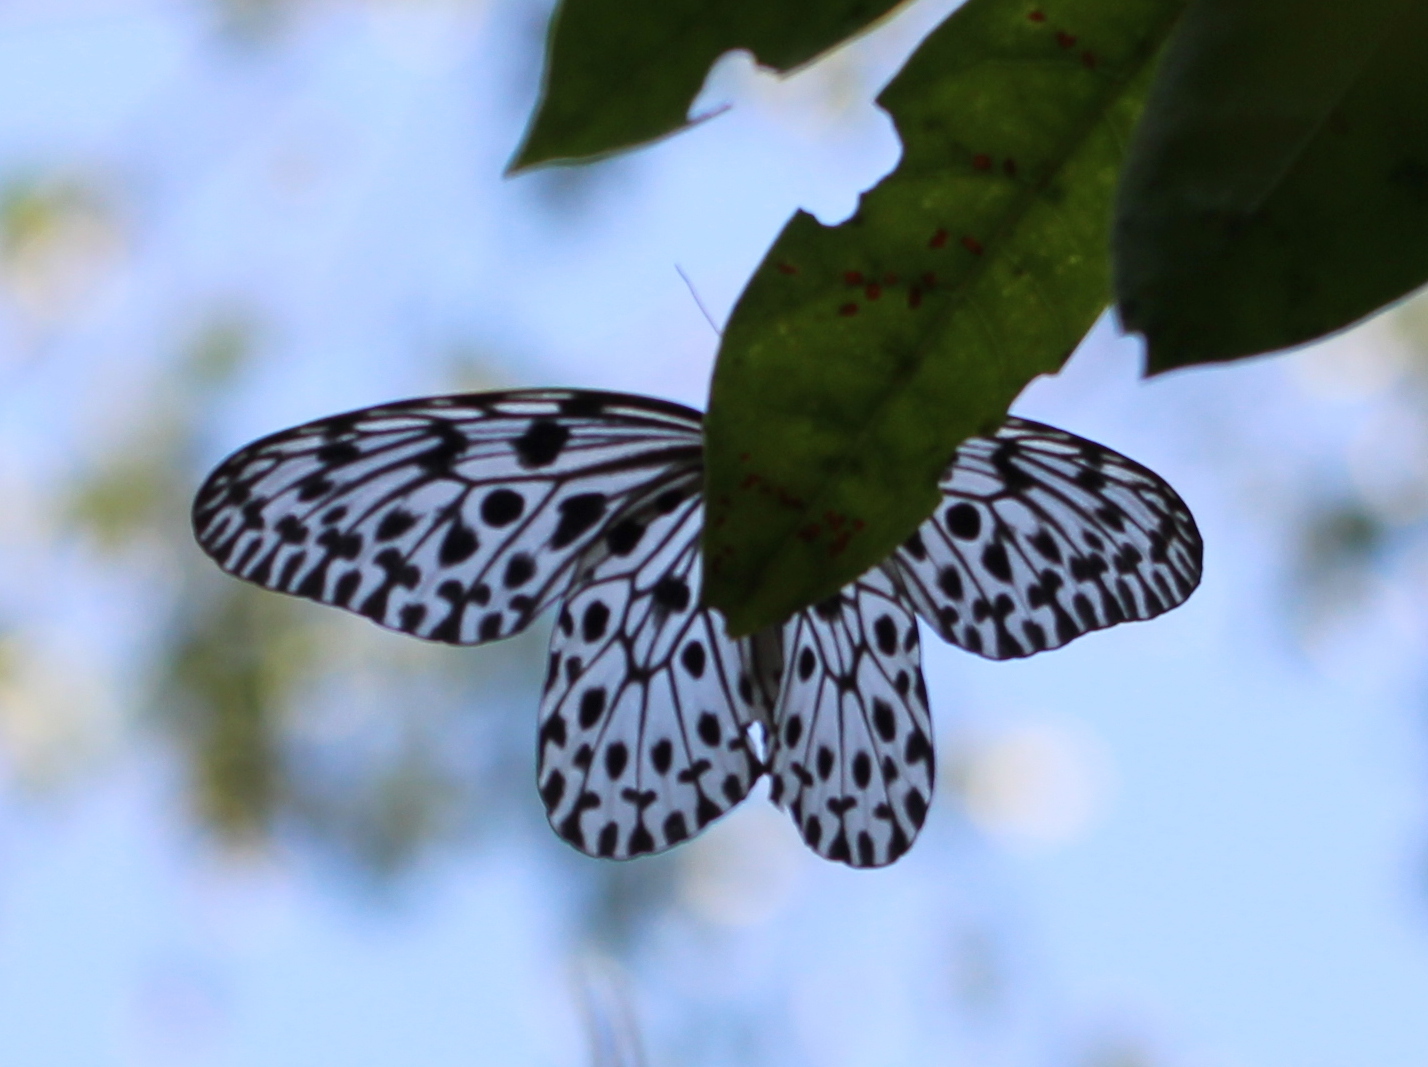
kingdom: Animalia
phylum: Arthropoda
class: Insecta
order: Lepidoptera
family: Nymphalidae
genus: Idea
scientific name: Idea malabarica
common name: Malabar tree-nymph
